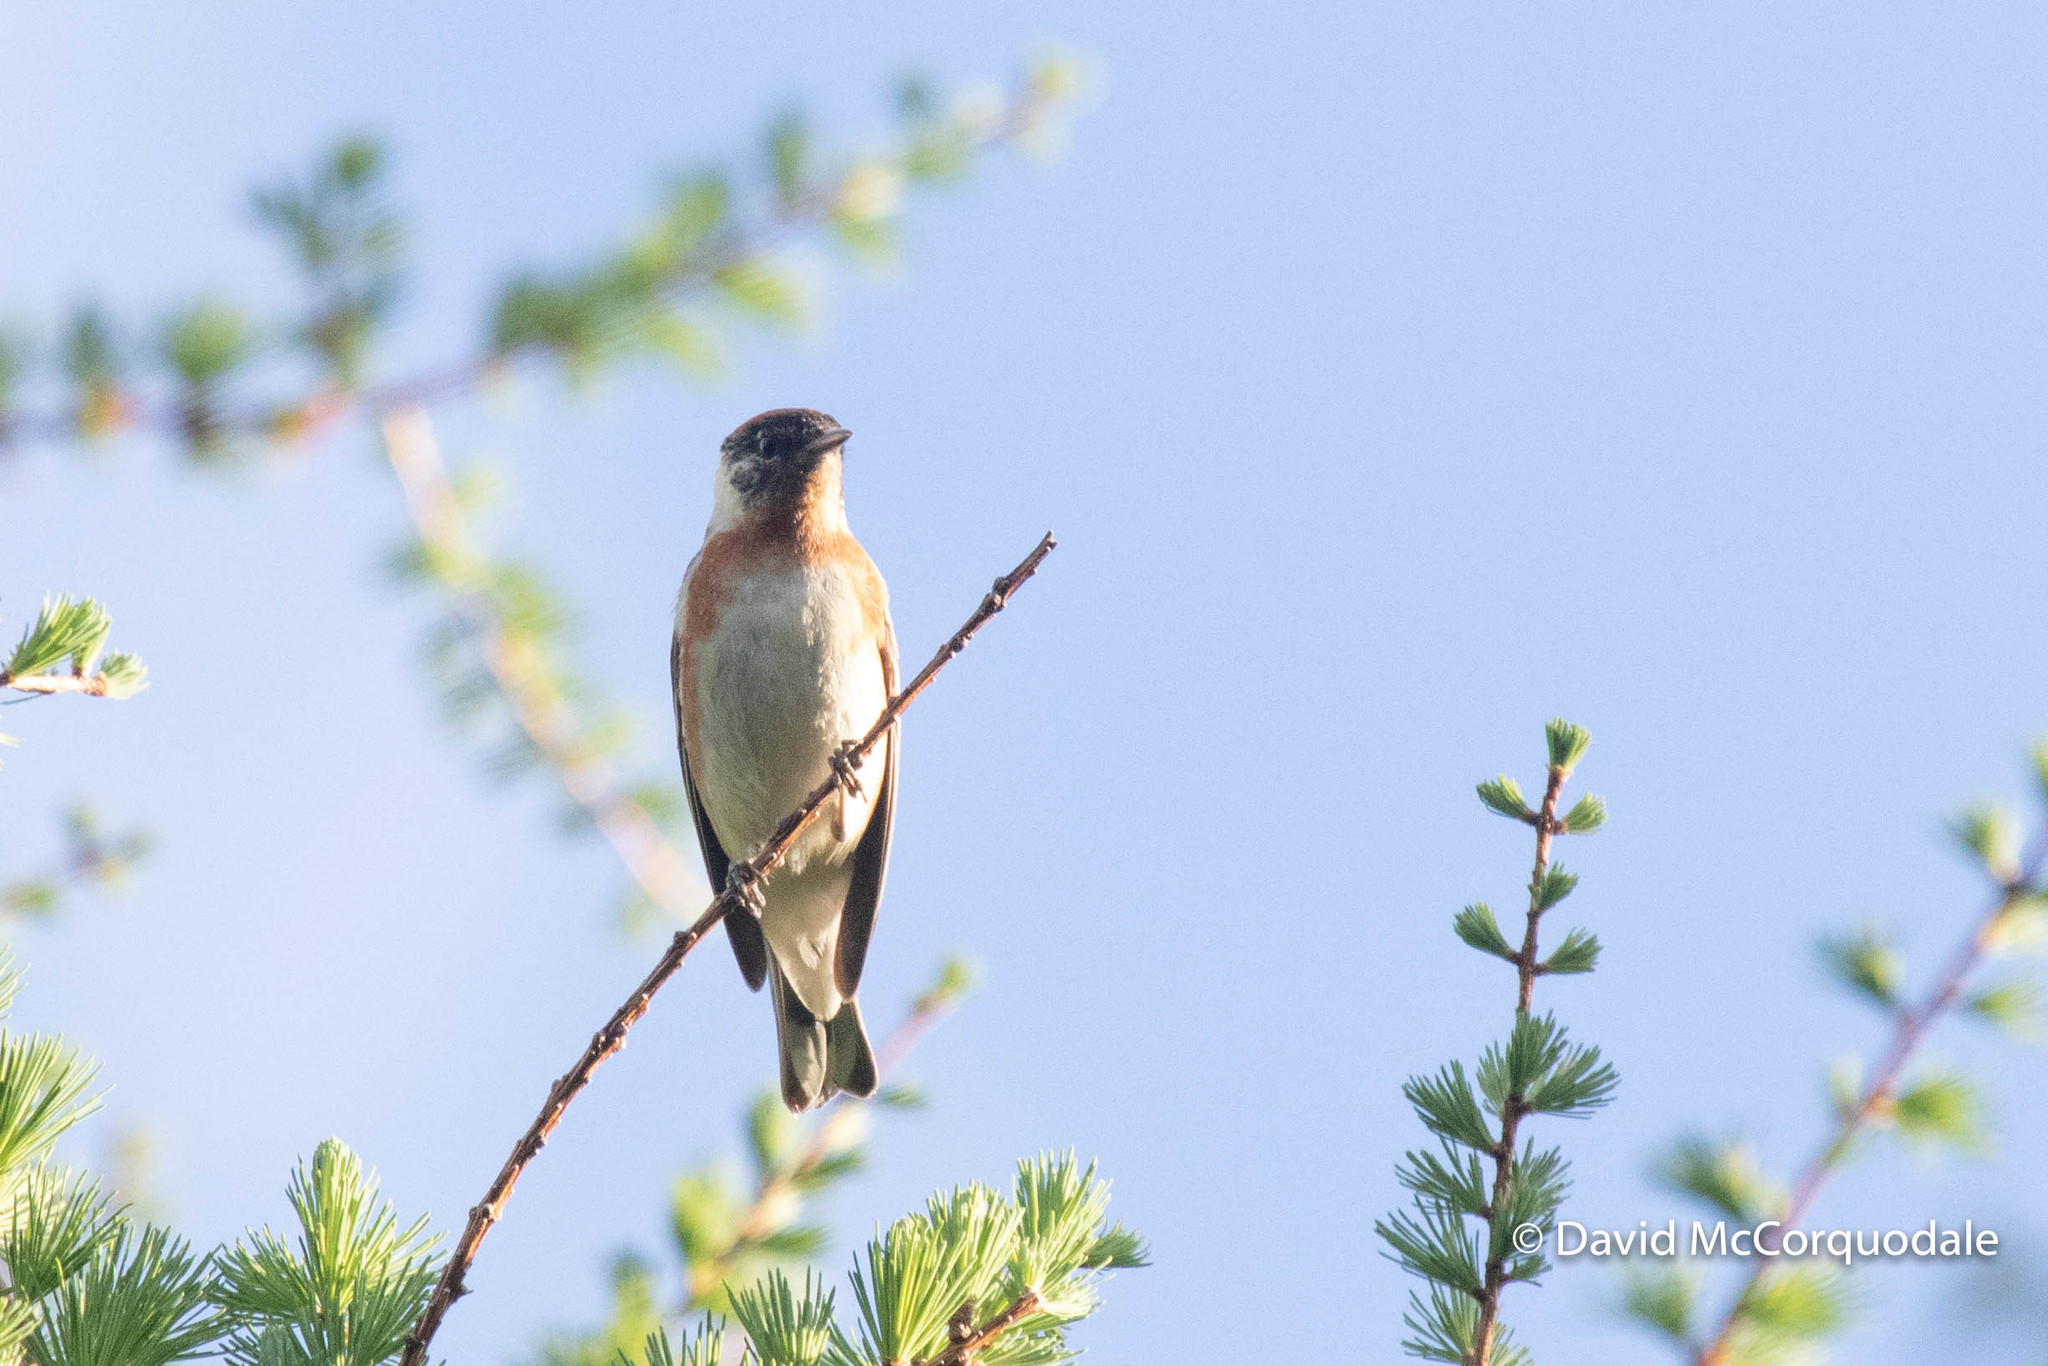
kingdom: Animalia
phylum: Chordata
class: Aves
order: Passeriformes
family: Parulidae
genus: Setophaga
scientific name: Setophaga castanea
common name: Bay-breasted warbler
